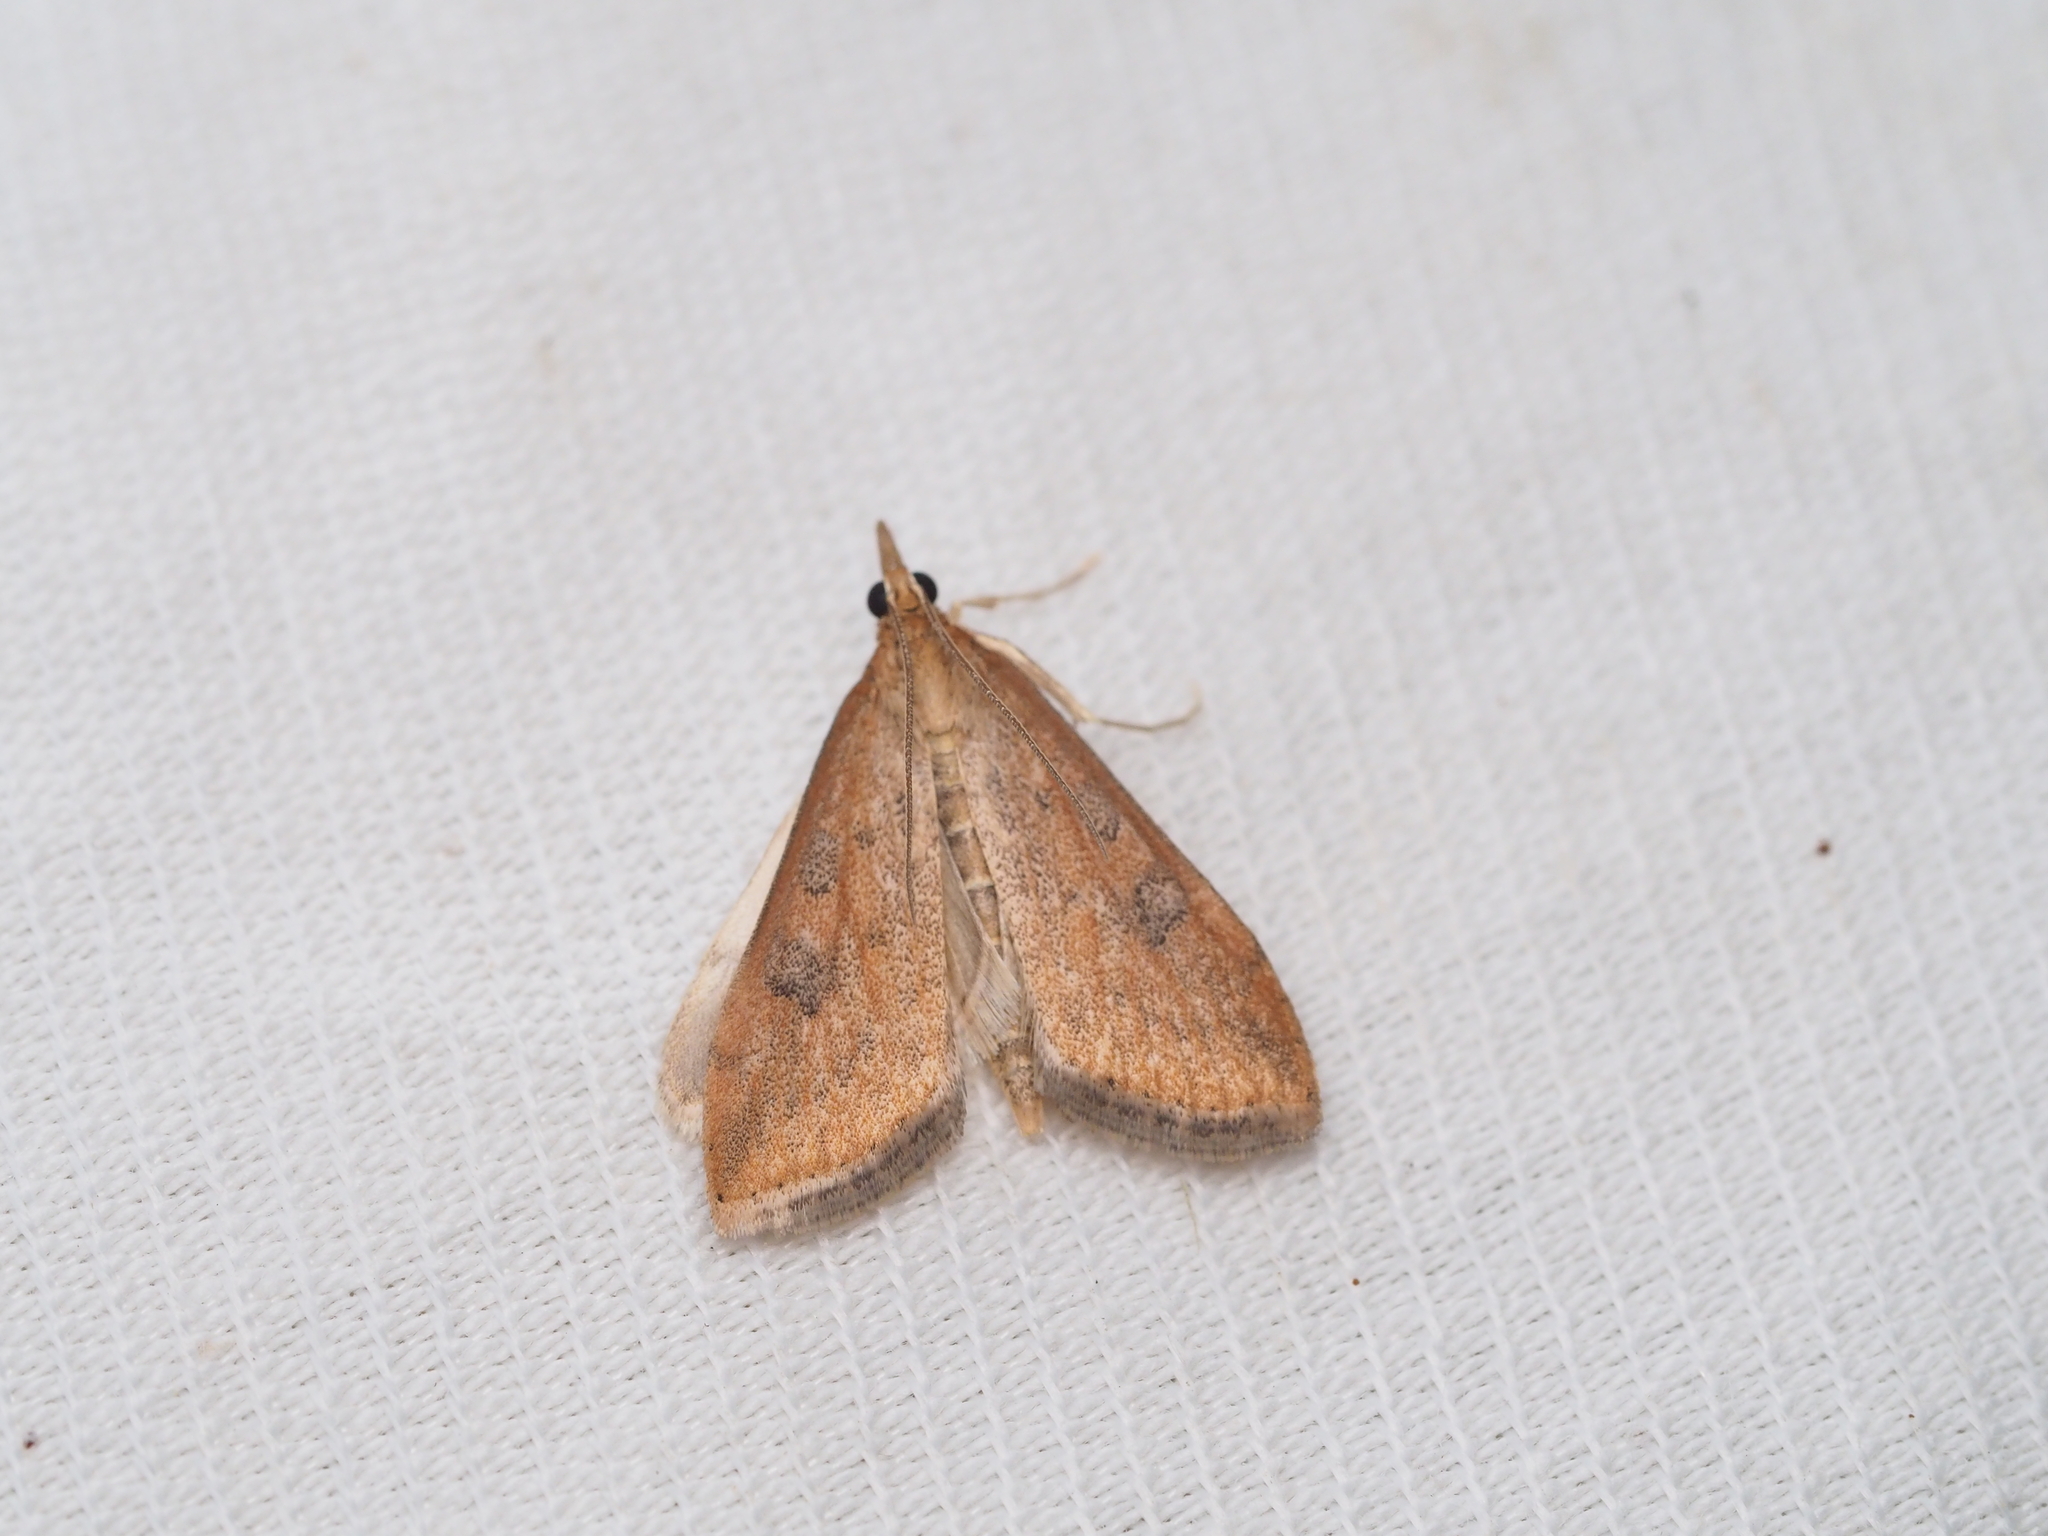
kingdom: Animalia
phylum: Arthropoda
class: Insecta
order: Lepidoptera
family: Crambidae
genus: Udea
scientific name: Udea ferrugalis
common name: Rusty dot
